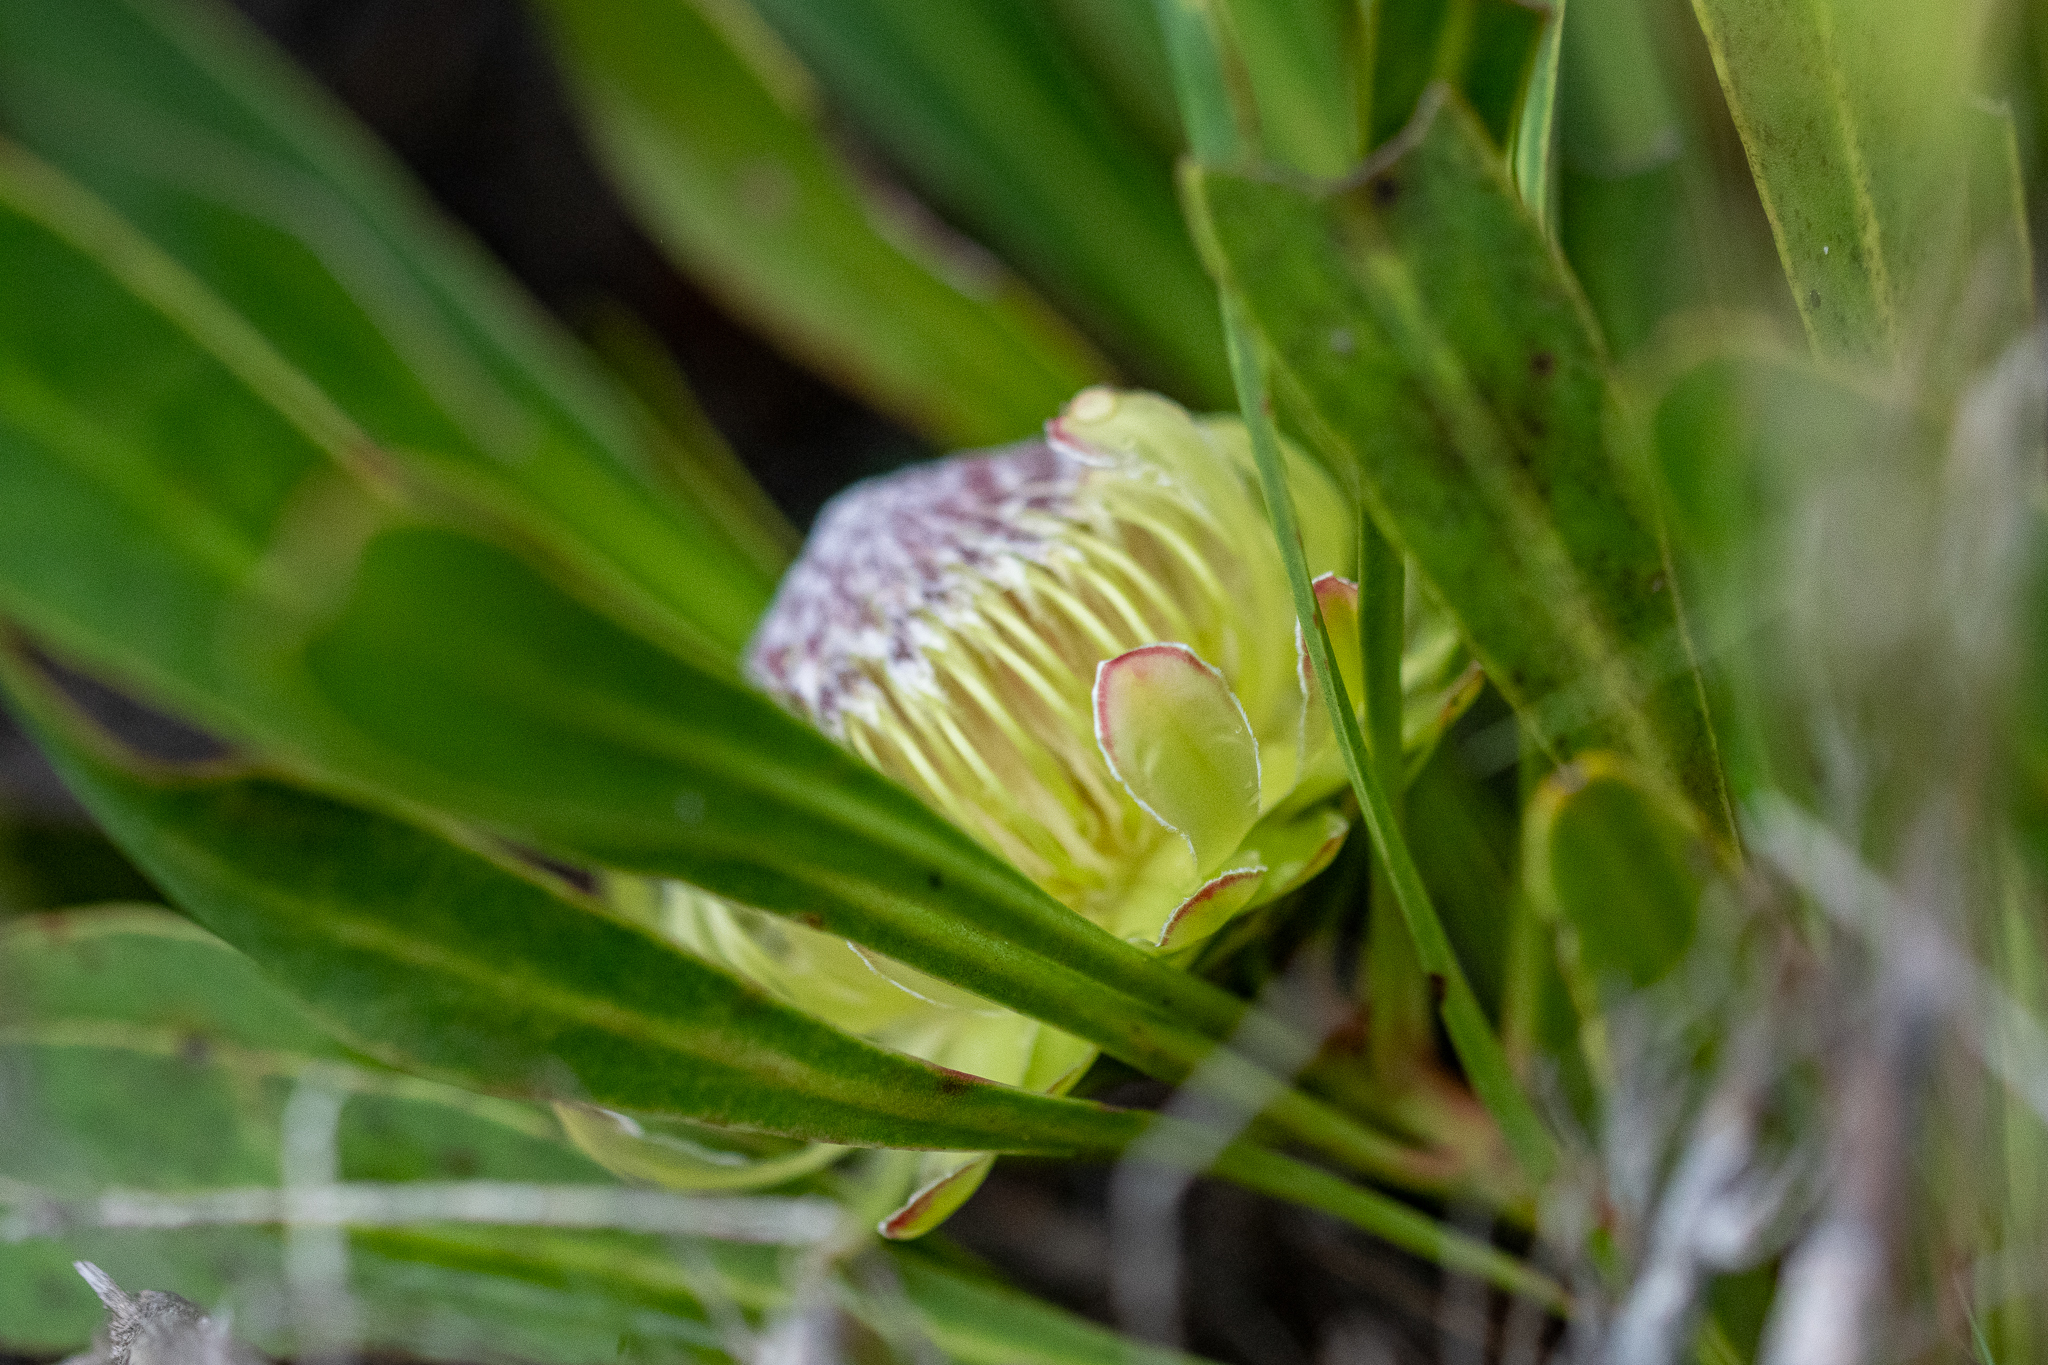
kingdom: Plantae
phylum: Tracheophyta
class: Magnoliopsida
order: Proteales
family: Proteaceae
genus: Protea
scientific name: Protea acaulos
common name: Common ground sugarbush
